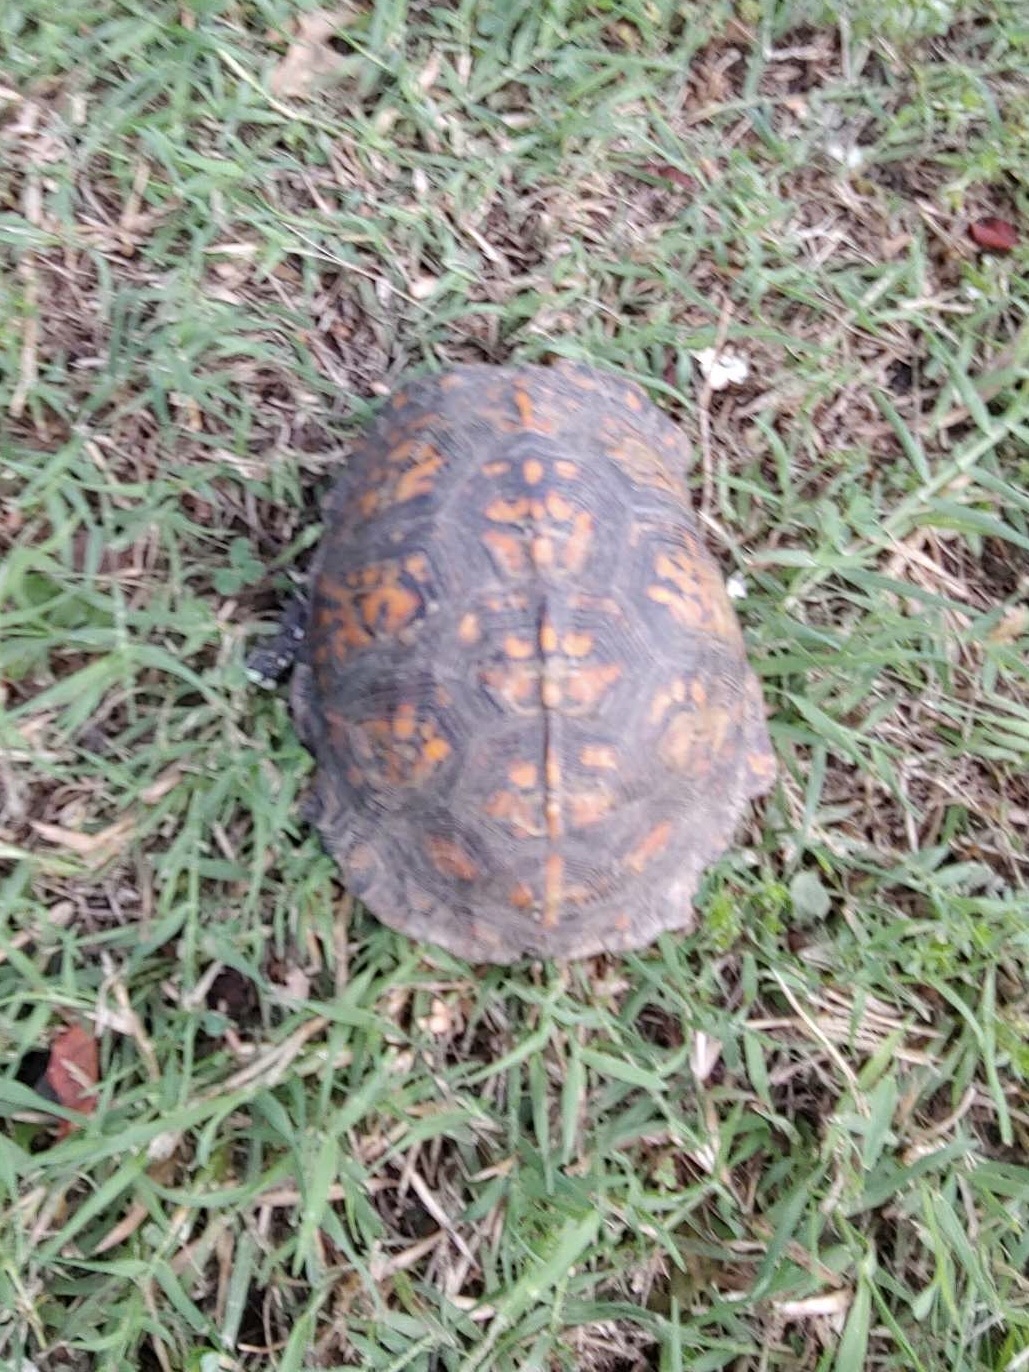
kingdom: Animalia
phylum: Chordata
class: Testudines
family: Emydidae
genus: Terrapene
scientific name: Terrapene carolina
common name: Common box turtle
